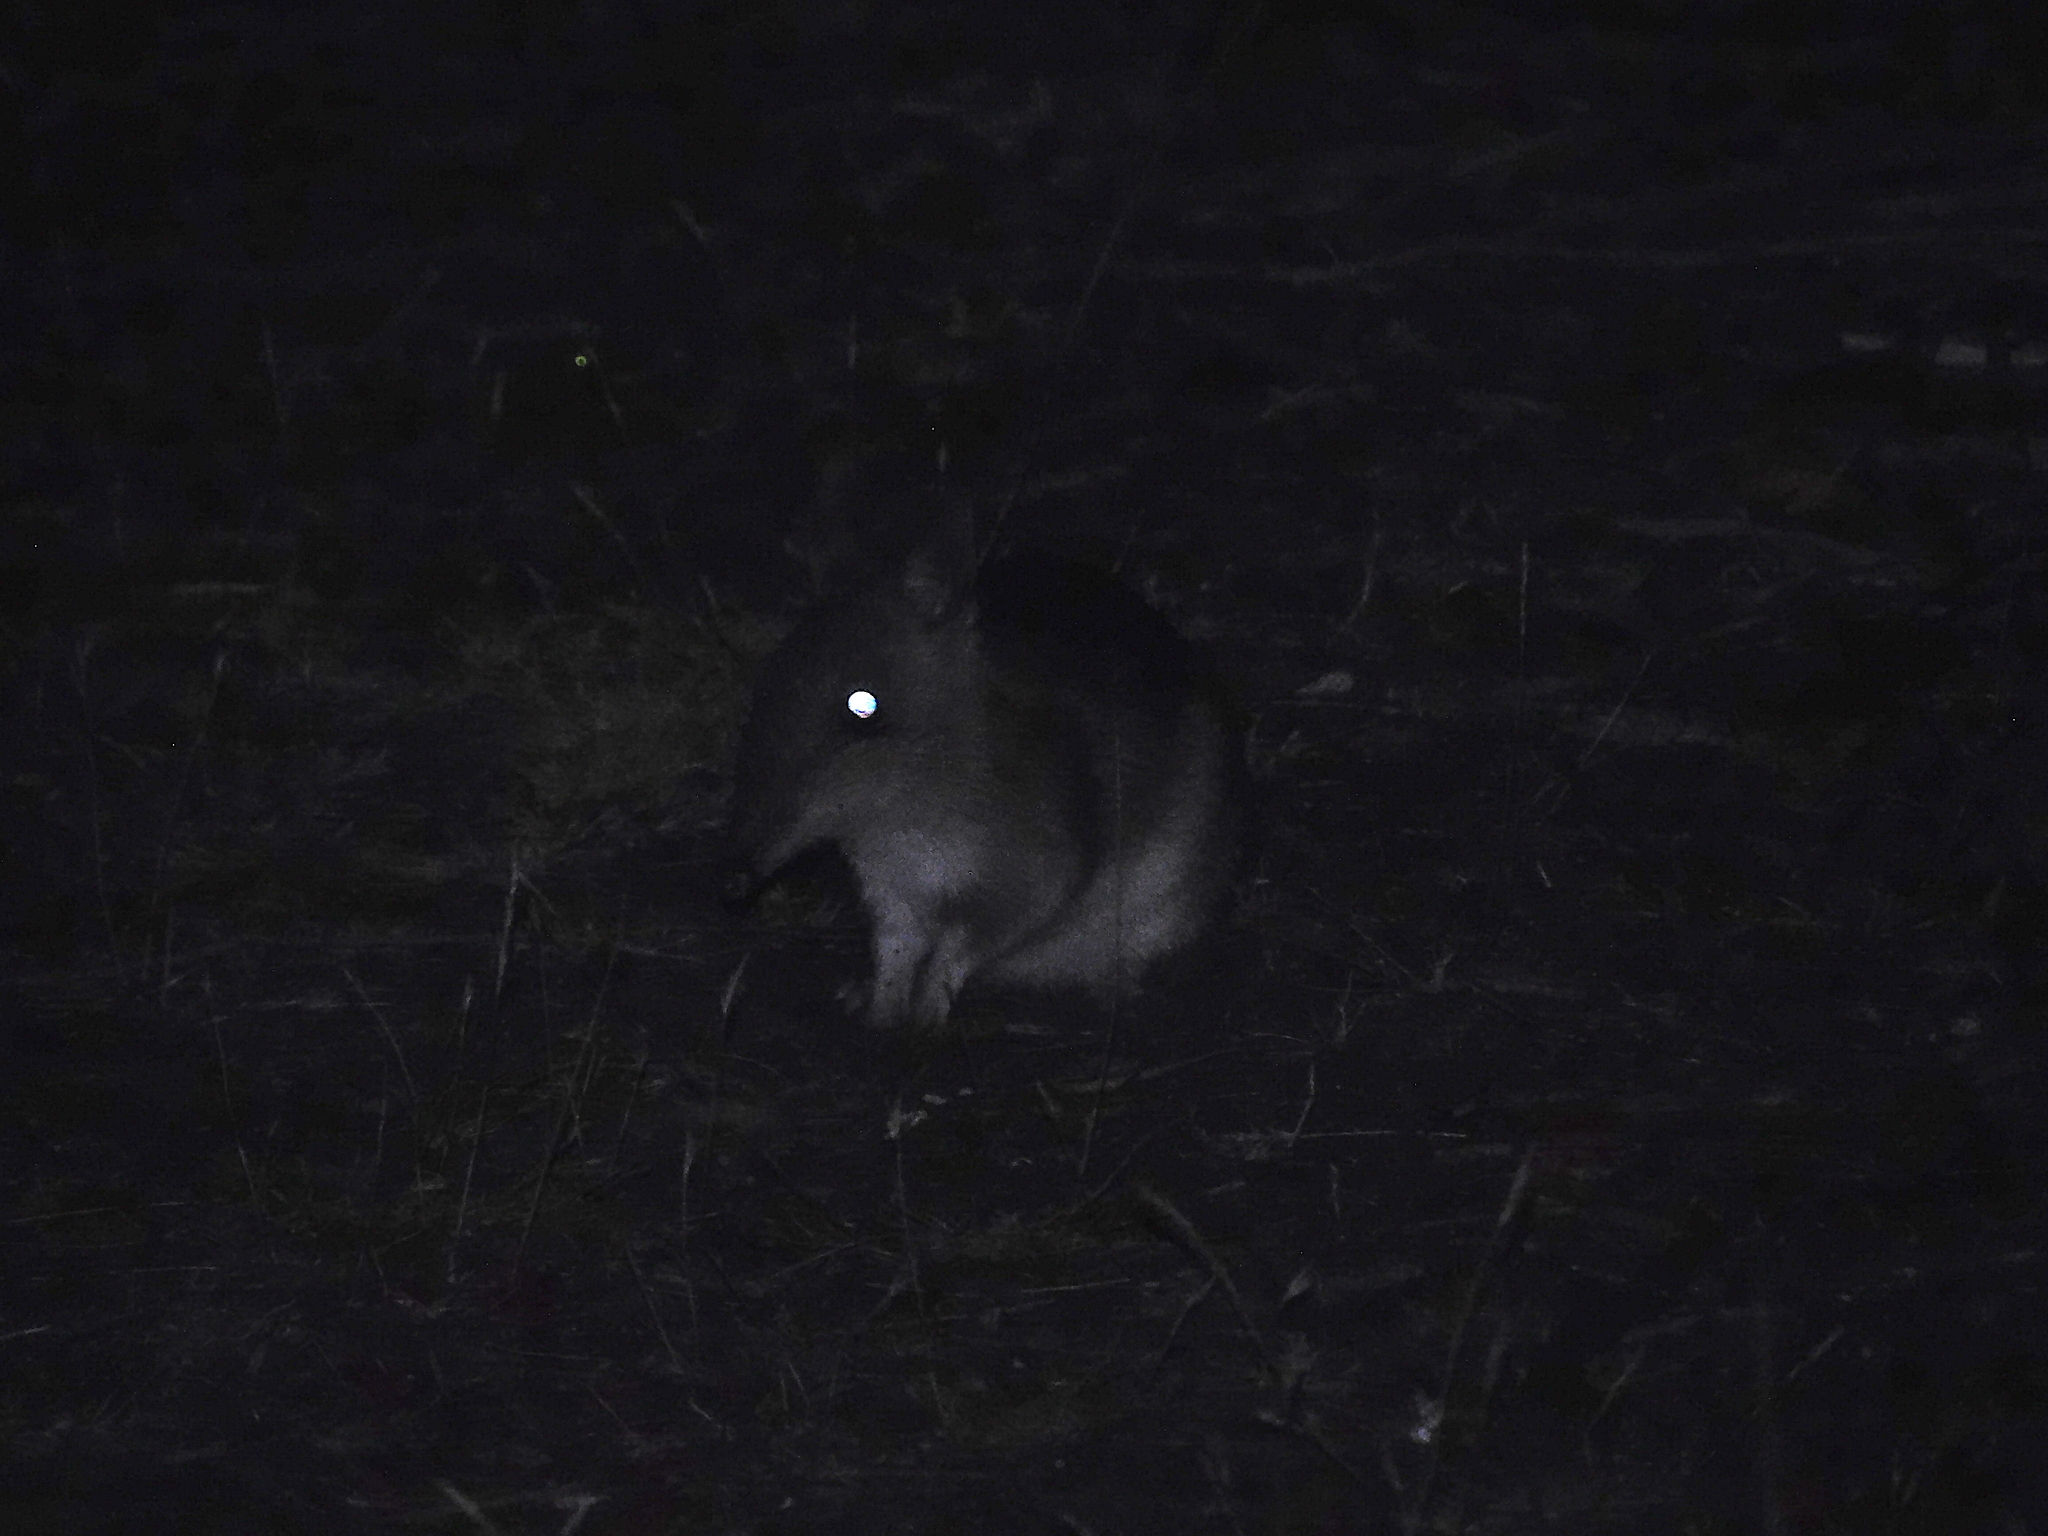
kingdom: Animalia
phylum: Chordata
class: Mammalia
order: Peramelemorphia
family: Peramelidae
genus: Perameles
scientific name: Perameles gunnii
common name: Eastern barred bandicoot
